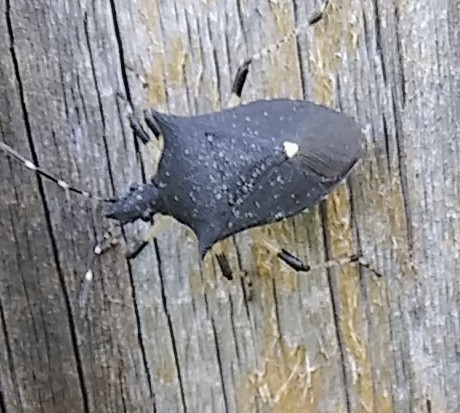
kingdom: Animalia
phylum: Arthropoda
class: Insecta
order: Hemiptera
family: Pentatomidae
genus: Proxys
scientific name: Proxys punctulatus
